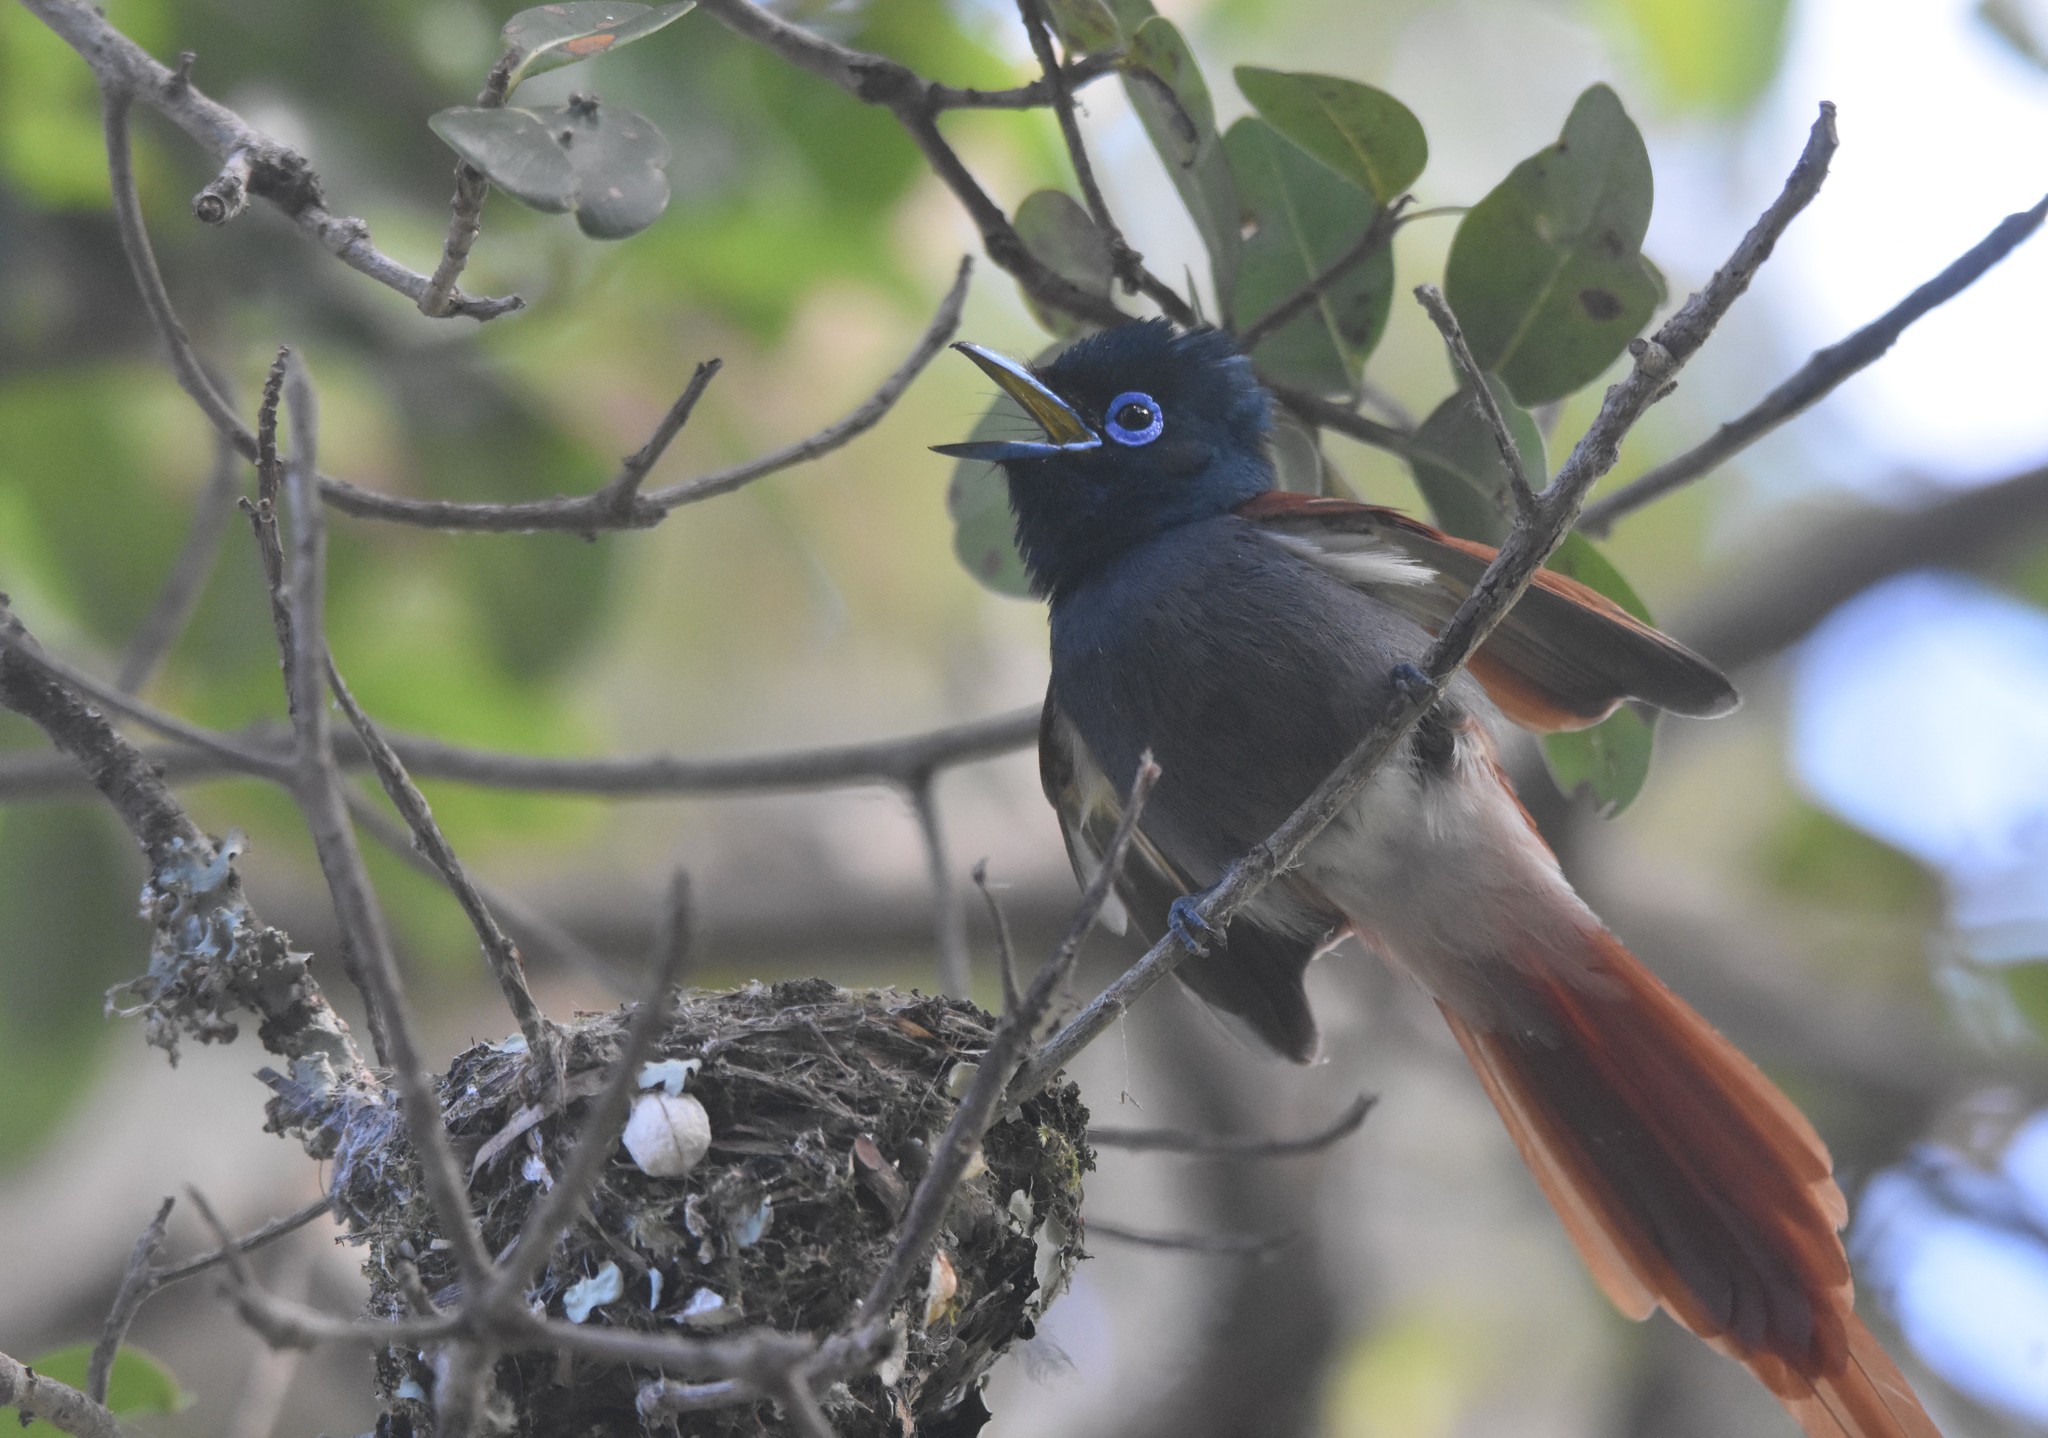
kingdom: Animalia
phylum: Chordata
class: Aves
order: Passeriformes
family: Monarchidae
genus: Terpsiphone
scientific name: Terpsiphone viridis
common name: African paradise flycatcher
